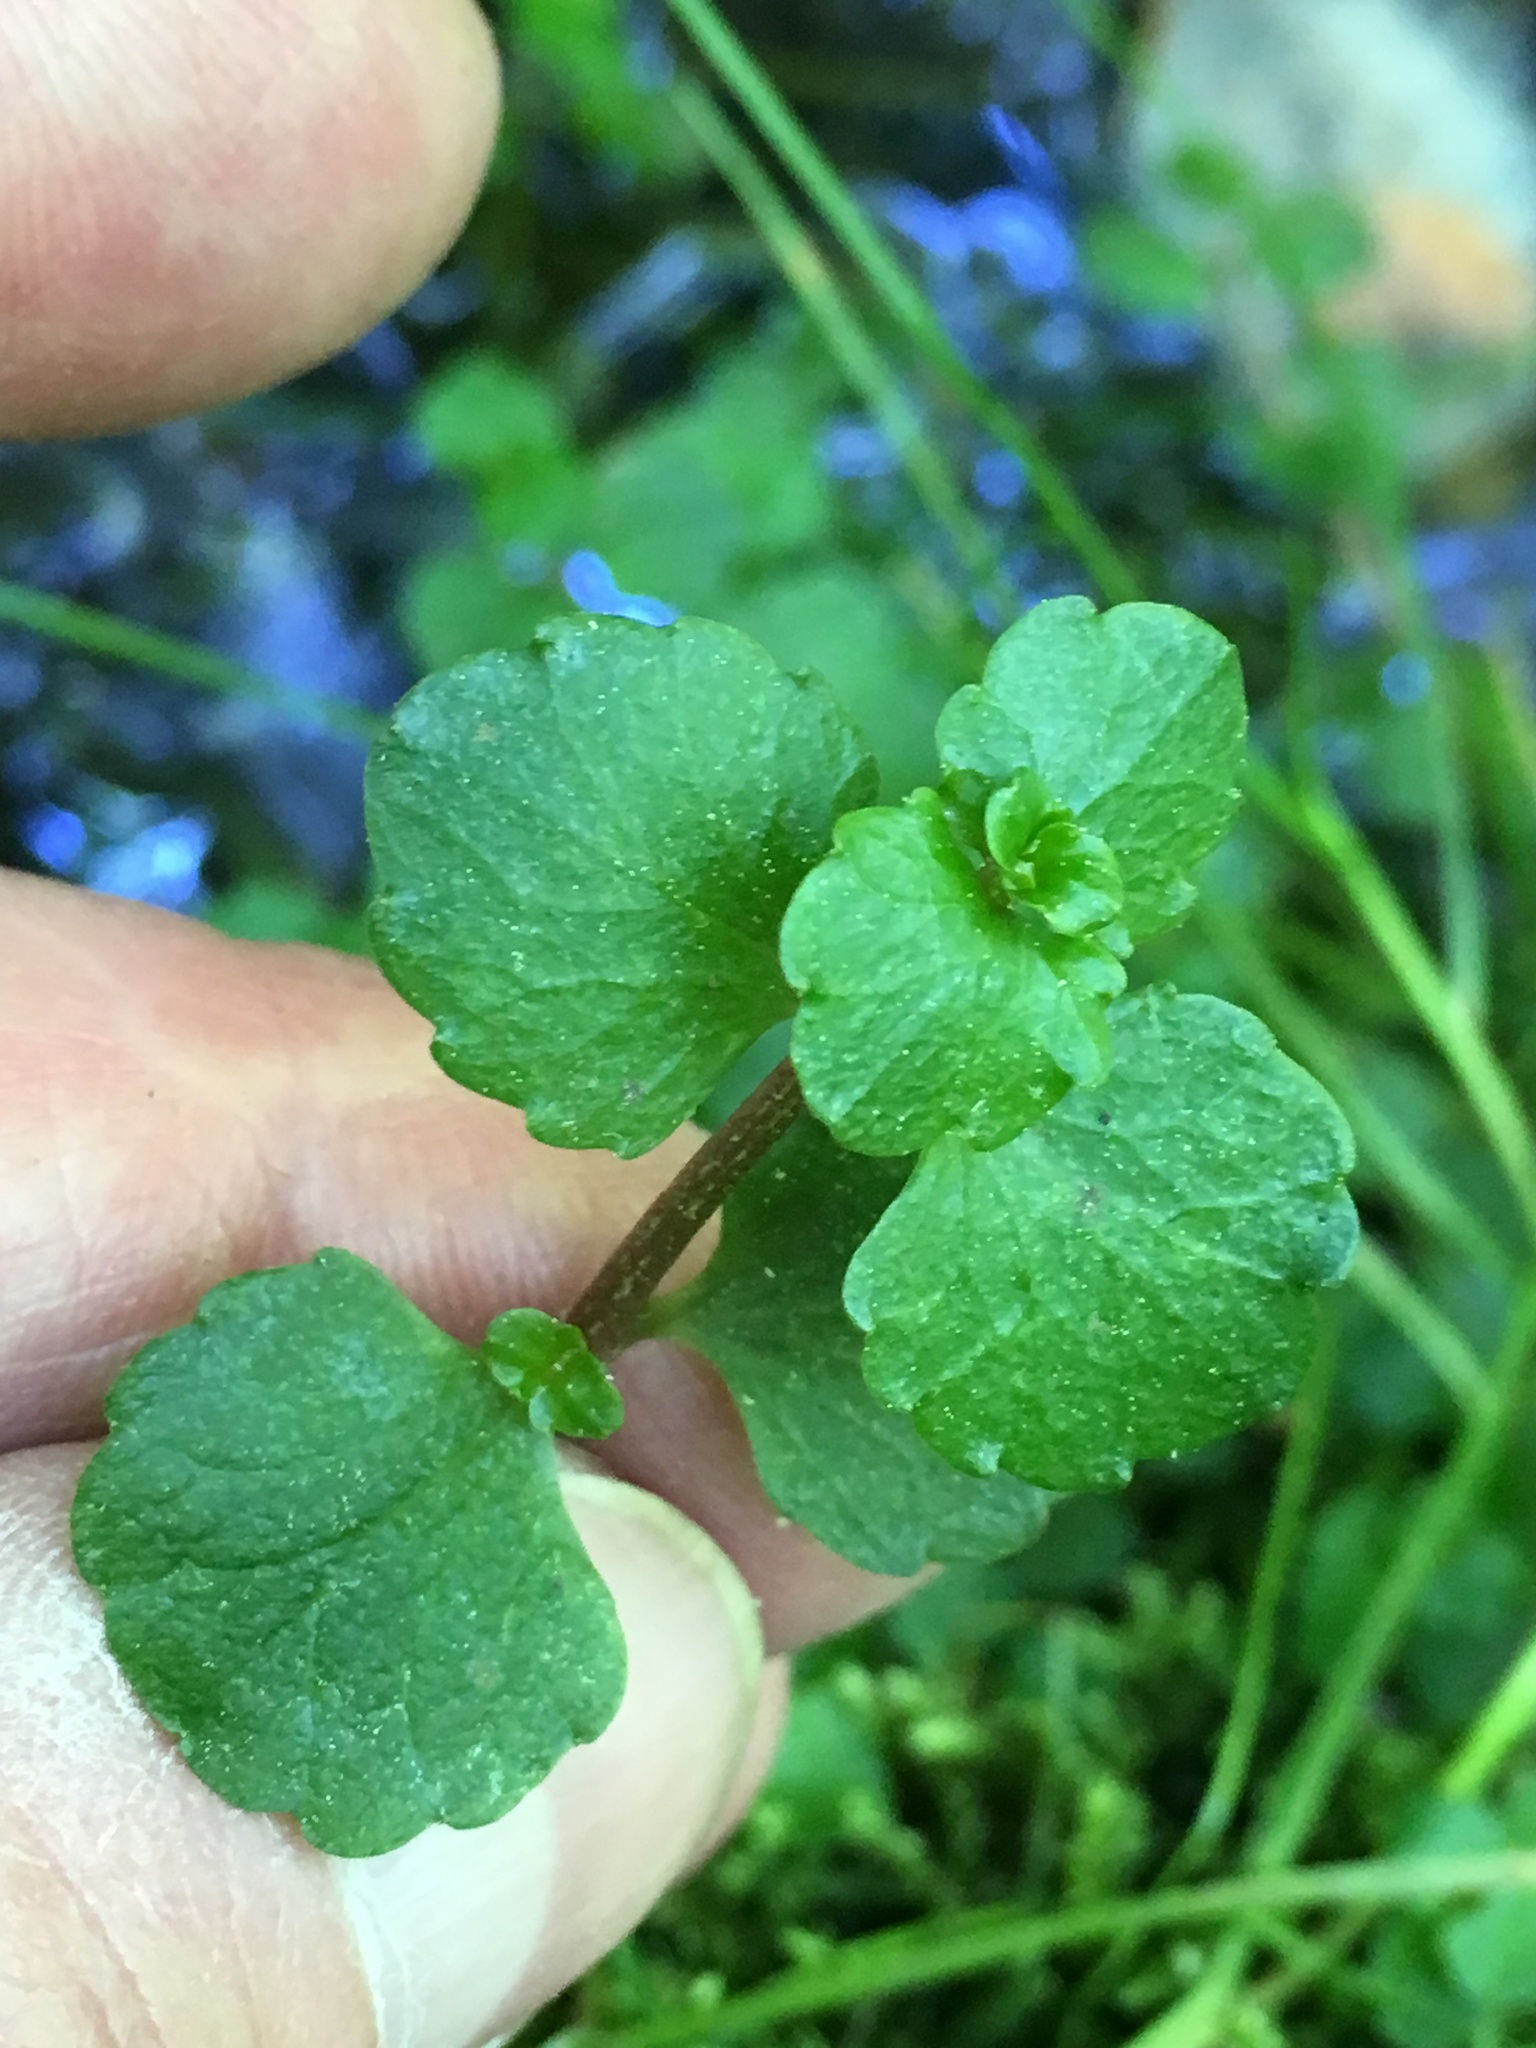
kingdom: Plantae
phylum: Tracheophyta
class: Magnoliopsida
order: Saxifragales
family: Saxifragaceae
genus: Chrysosplenium
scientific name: Chrysosplenium americanum
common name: American golden-saxifrage
